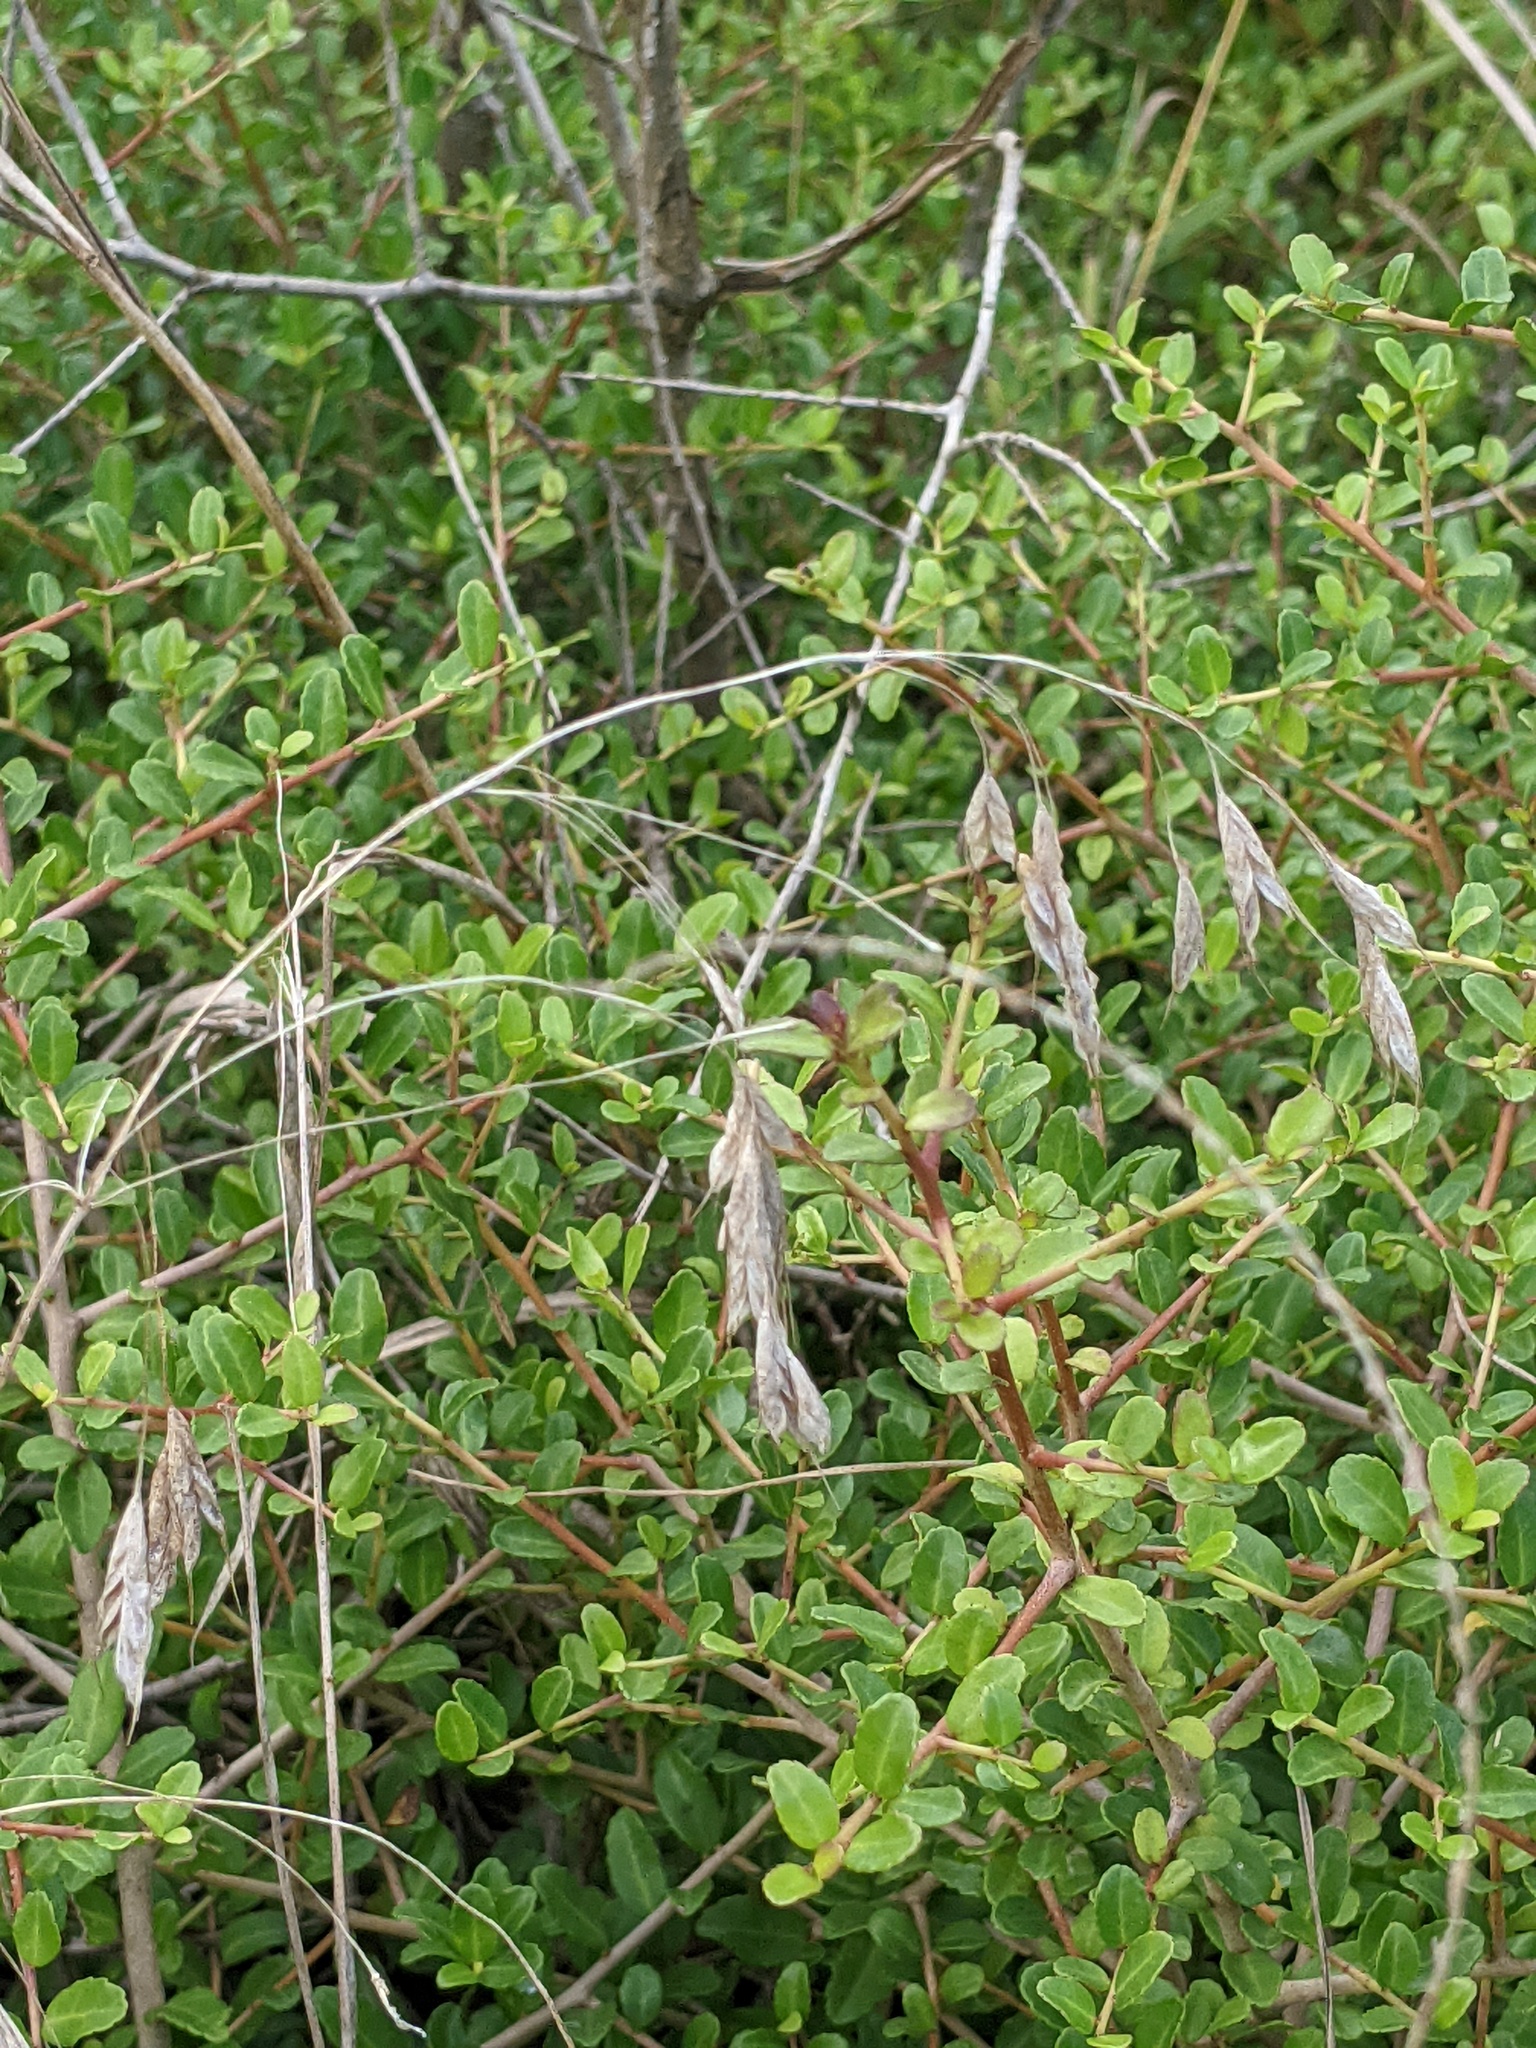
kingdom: Plantae
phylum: Tracheophyta
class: Liliopsida
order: Poales
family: Poaceae
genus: Bromus
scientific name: Bromus japonicus
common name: Japanese brome
